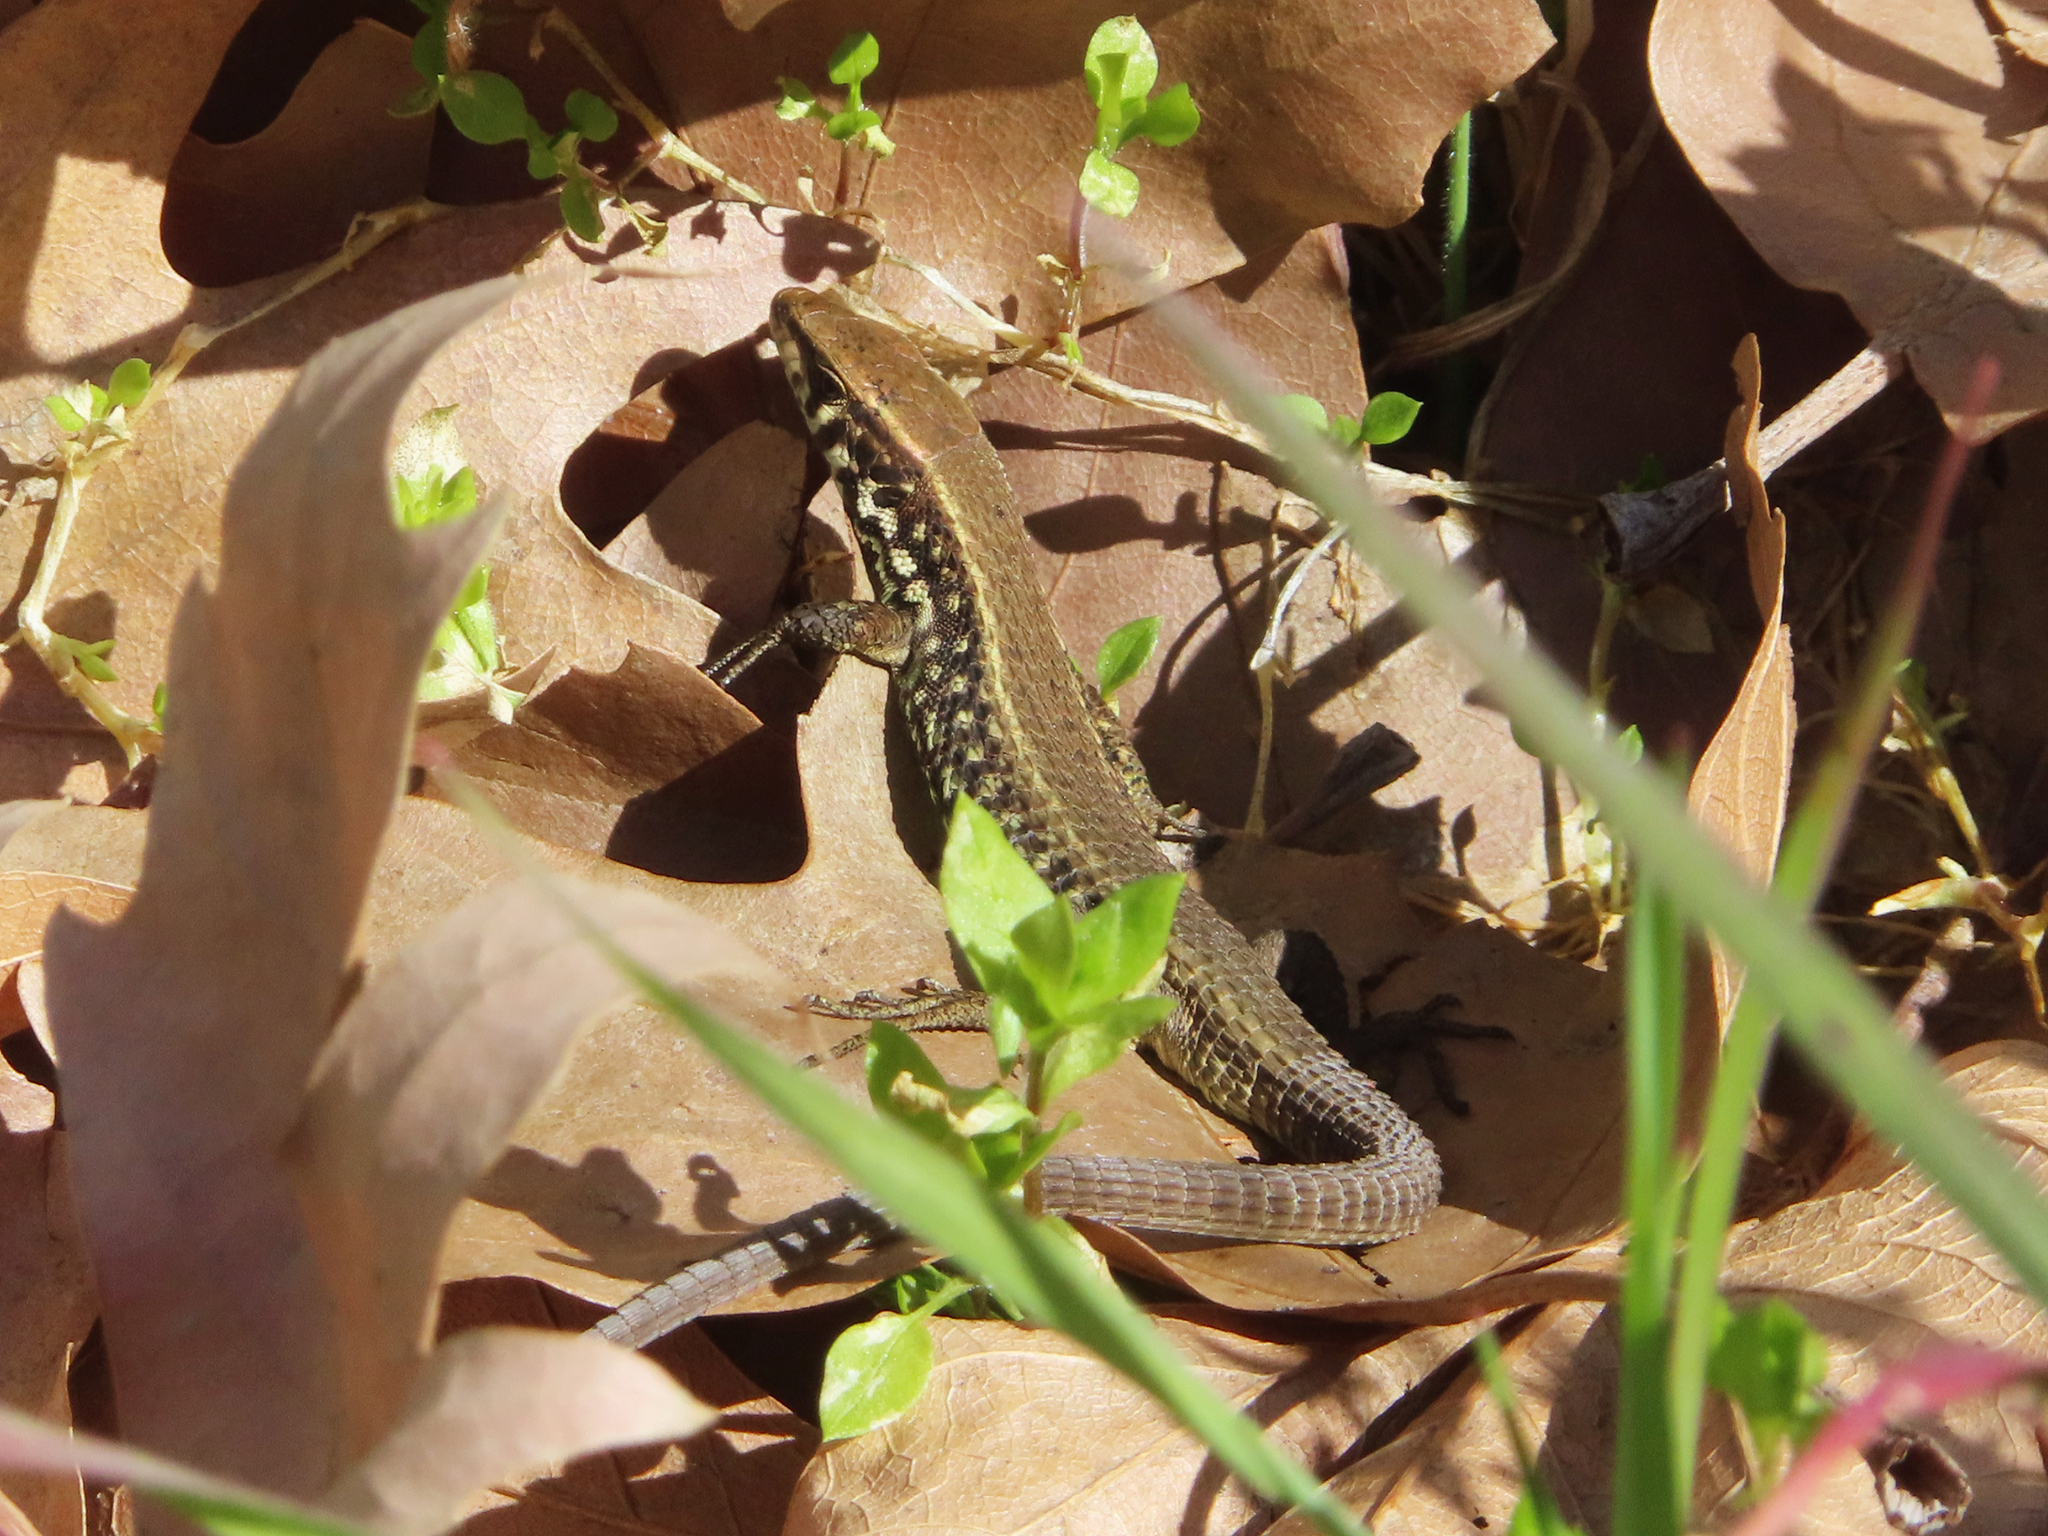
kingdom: Animalia
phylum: Chordata
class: Squamata
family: Lacertidae
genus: Algyroides
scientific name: Algyroides moreoticus
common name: Greek algyroides
